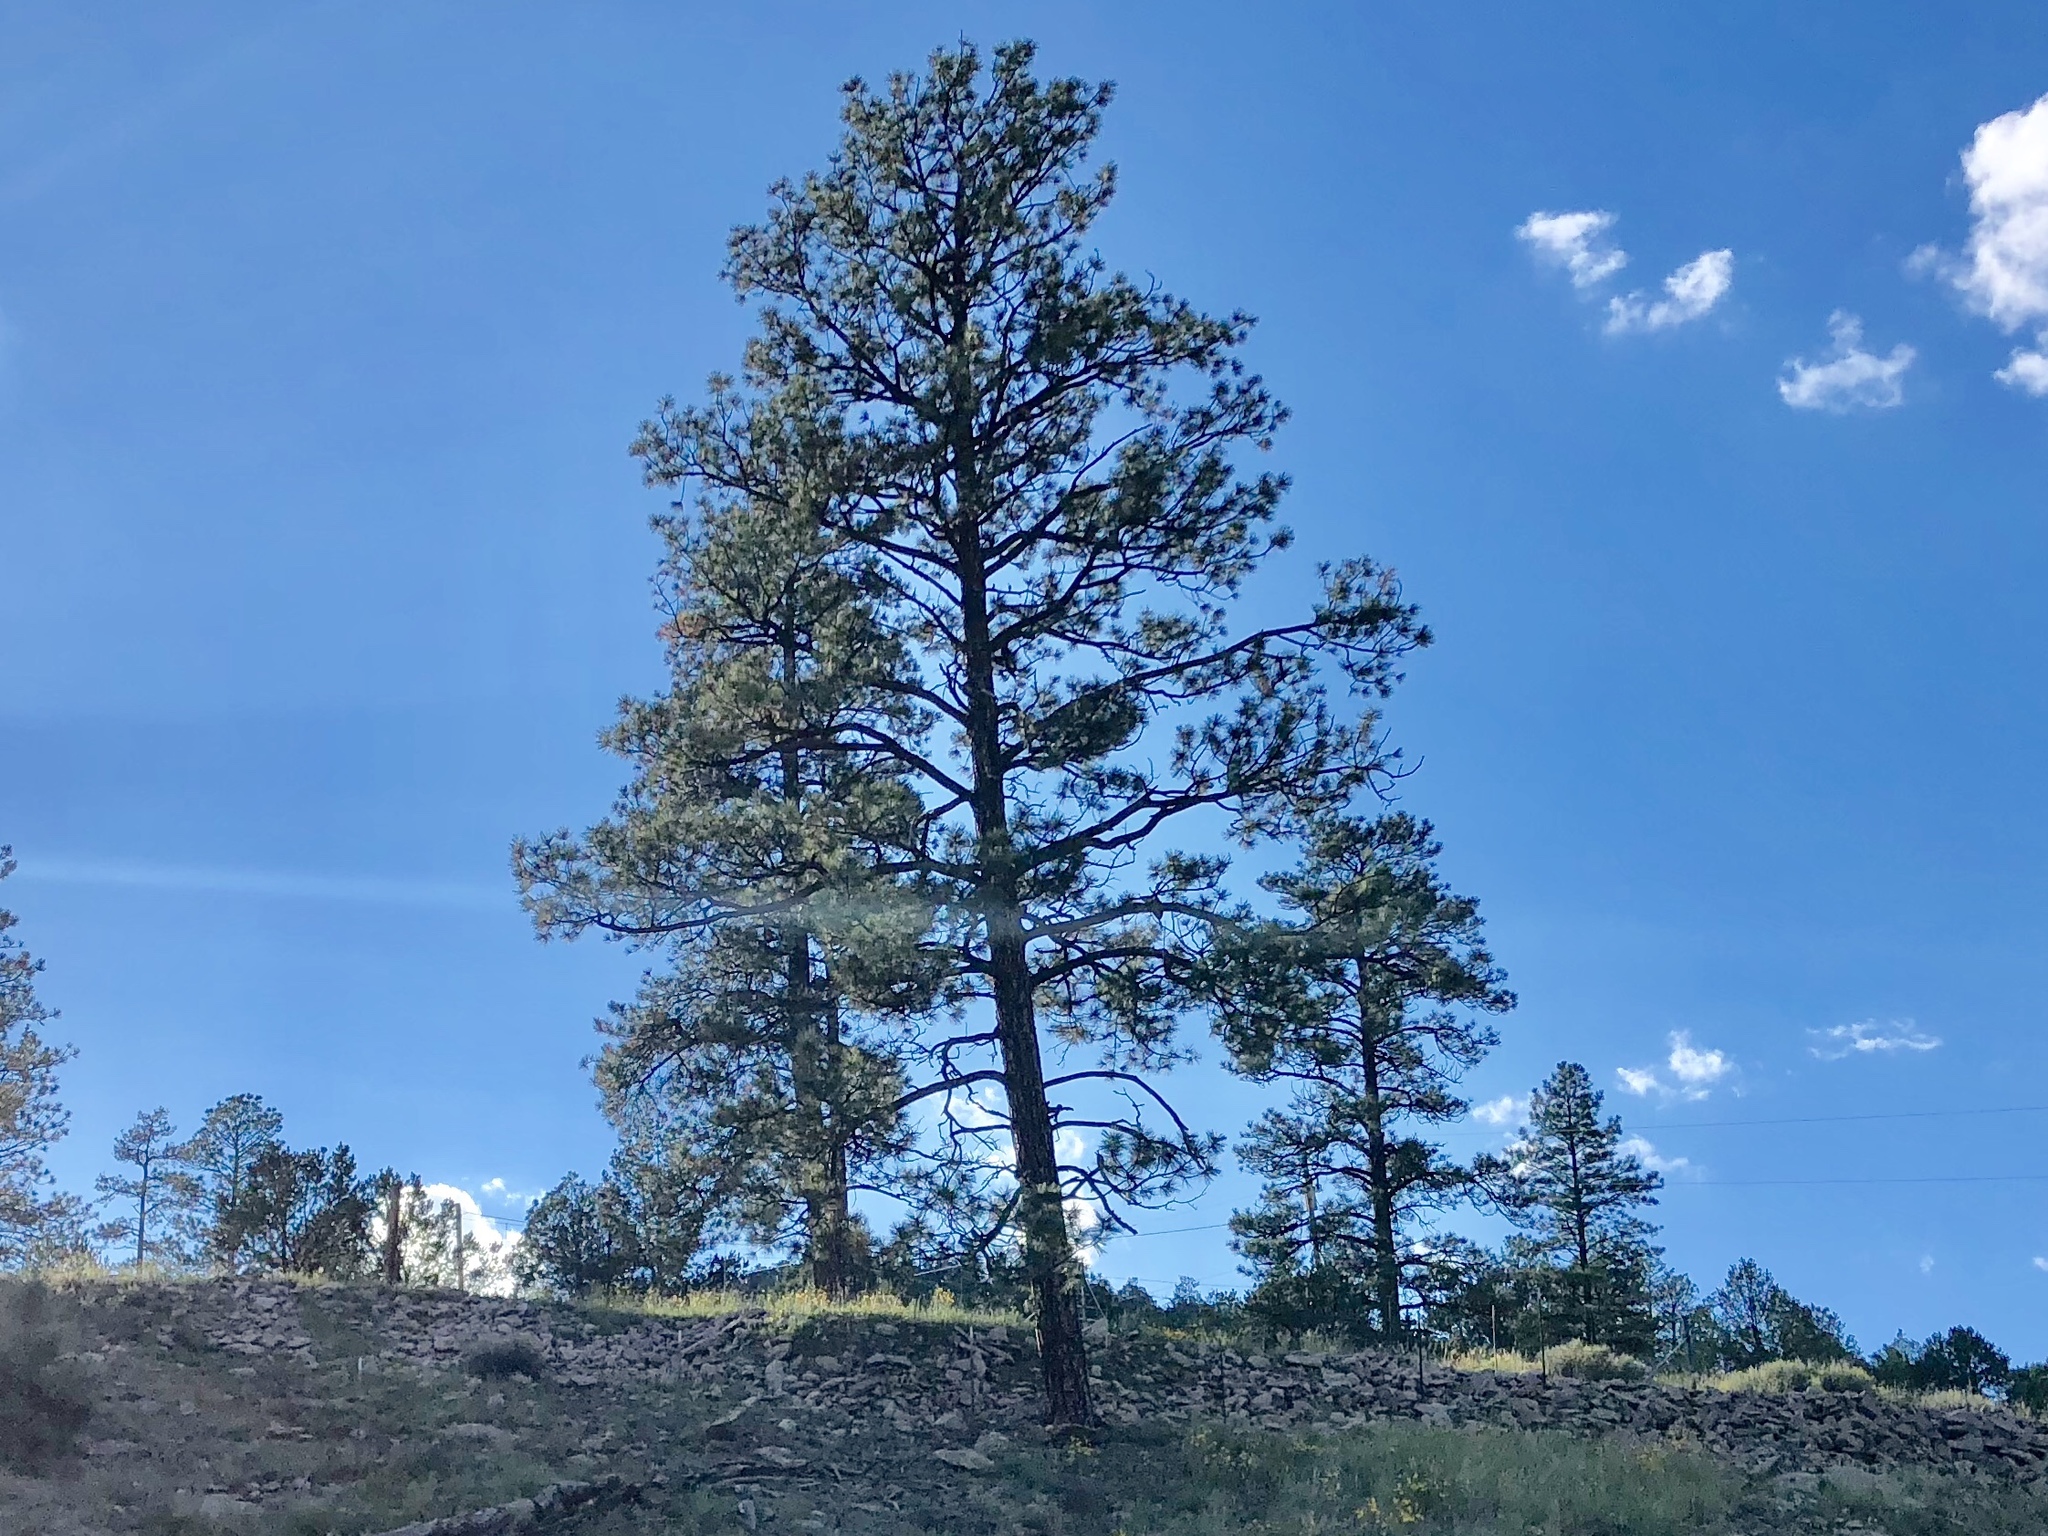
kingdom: Plantae
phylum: Tracheophyta
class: Pinopsida
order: Pinales
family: Pinaceae
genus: Pinus
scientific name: Pinus ponderosa
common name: Western yellow-pine
